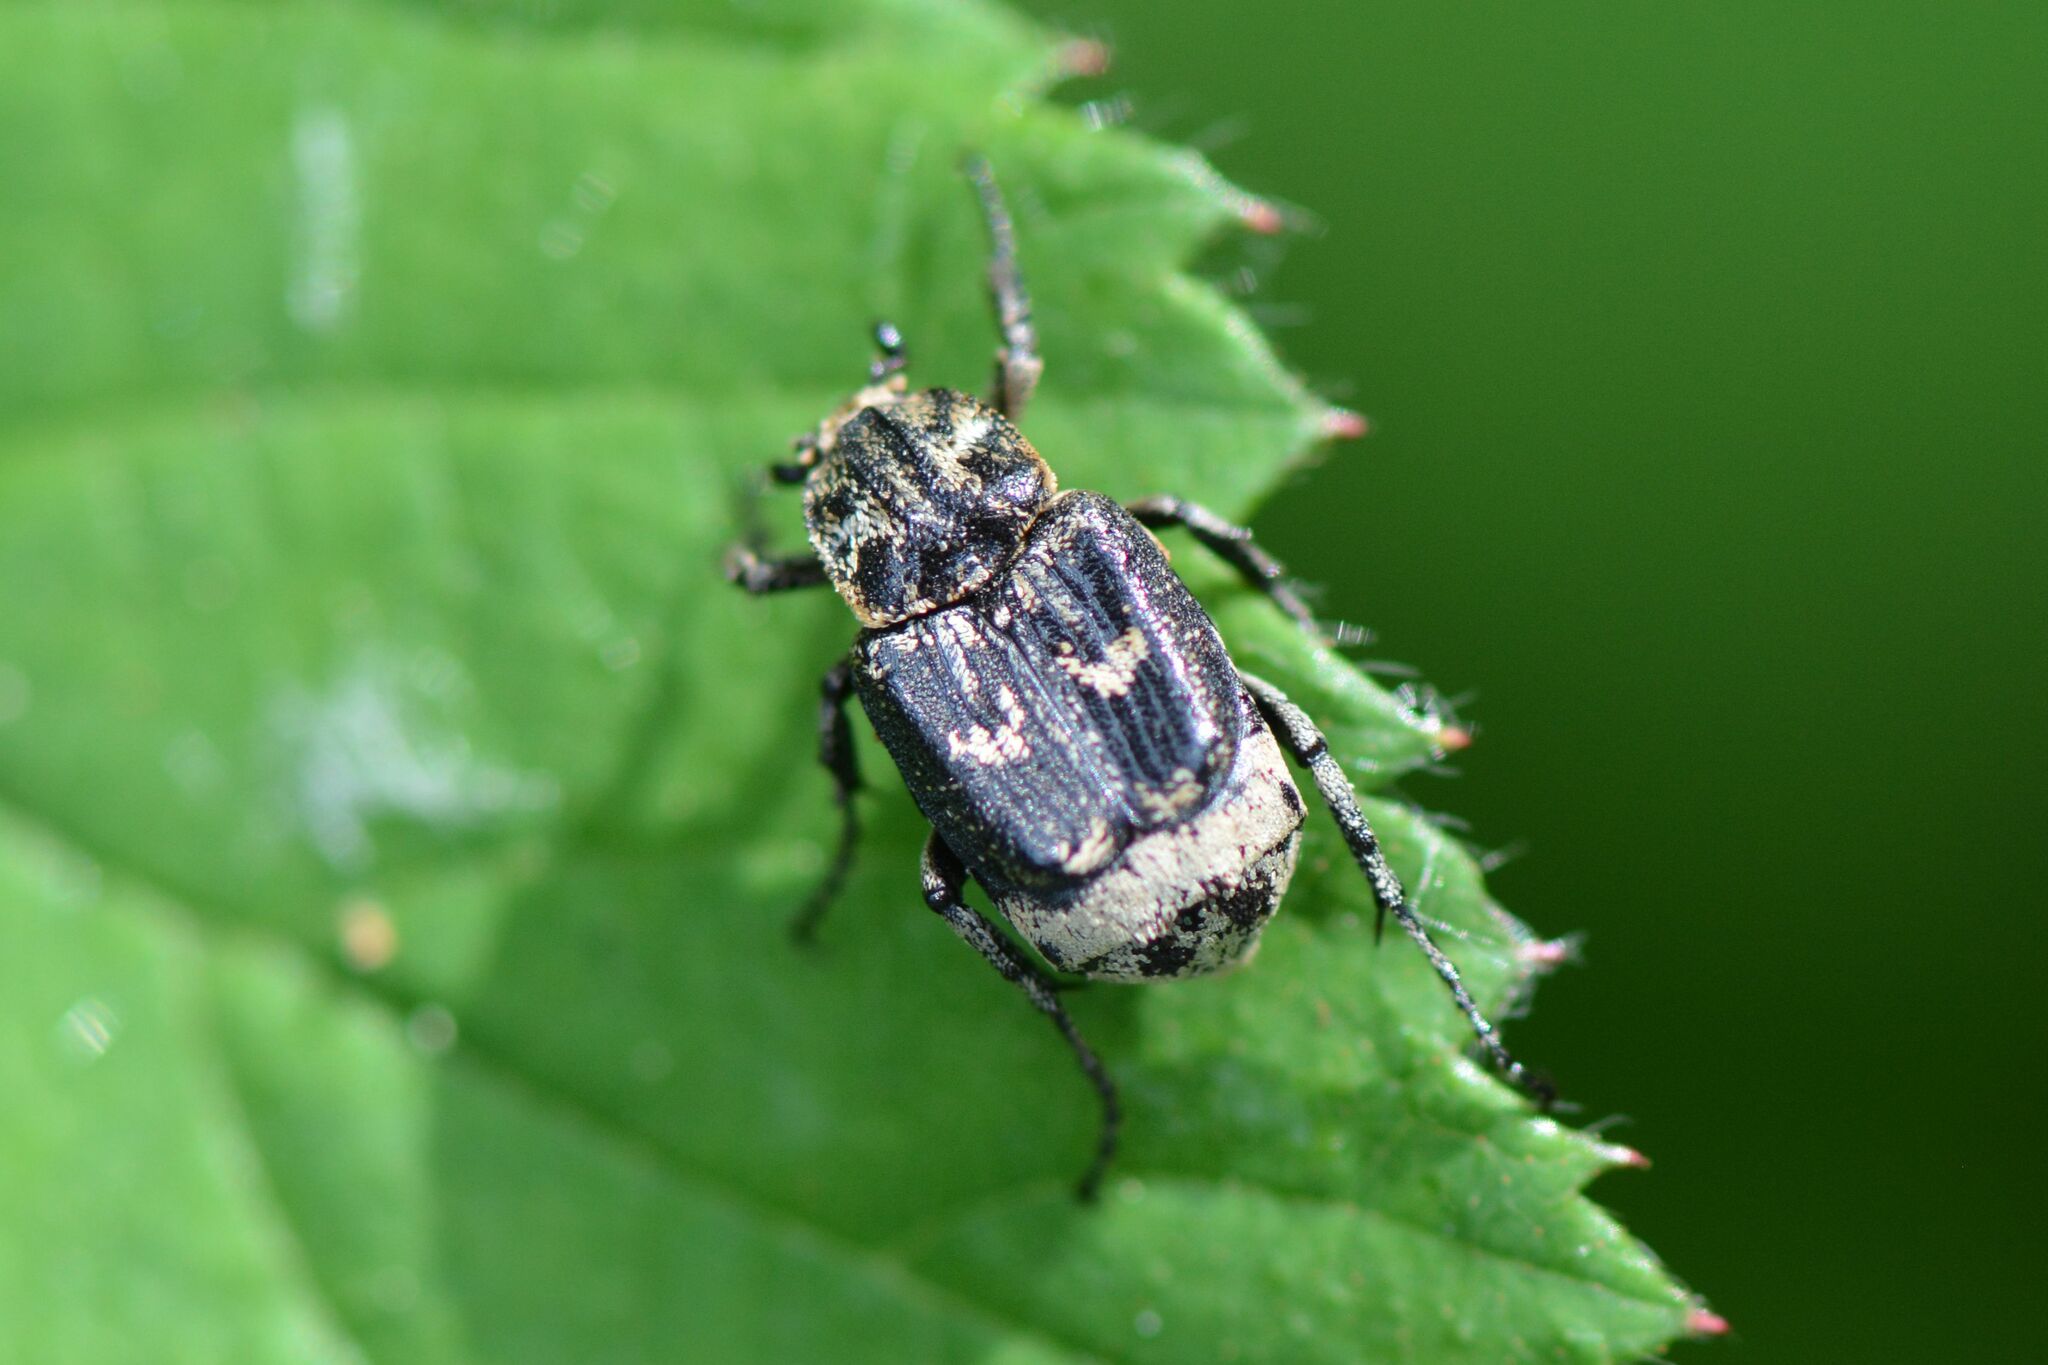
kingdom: Animalia
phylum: Arthropoda
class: Insecta
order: Coleoptera
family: Scarabaeidae
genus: Valgus
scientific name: Valgus hemipterus
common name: Bug flower chafer
